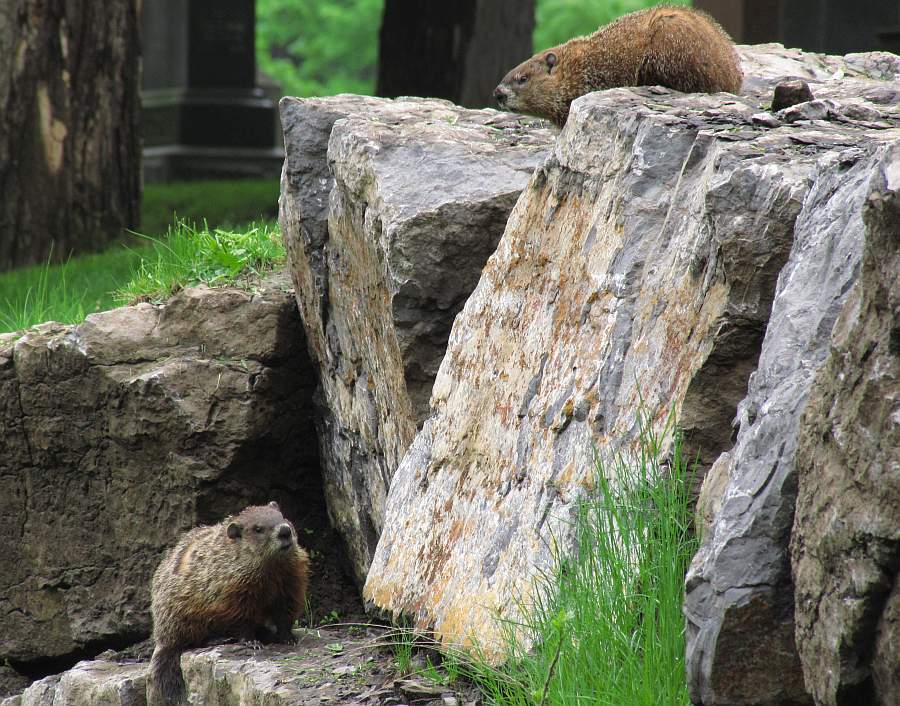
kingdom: Animalia
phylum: Chordata
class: Mammalia
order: Rodentia
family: Sciuridae
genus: Marmota
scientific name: Marmota monax
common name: Groundhog
